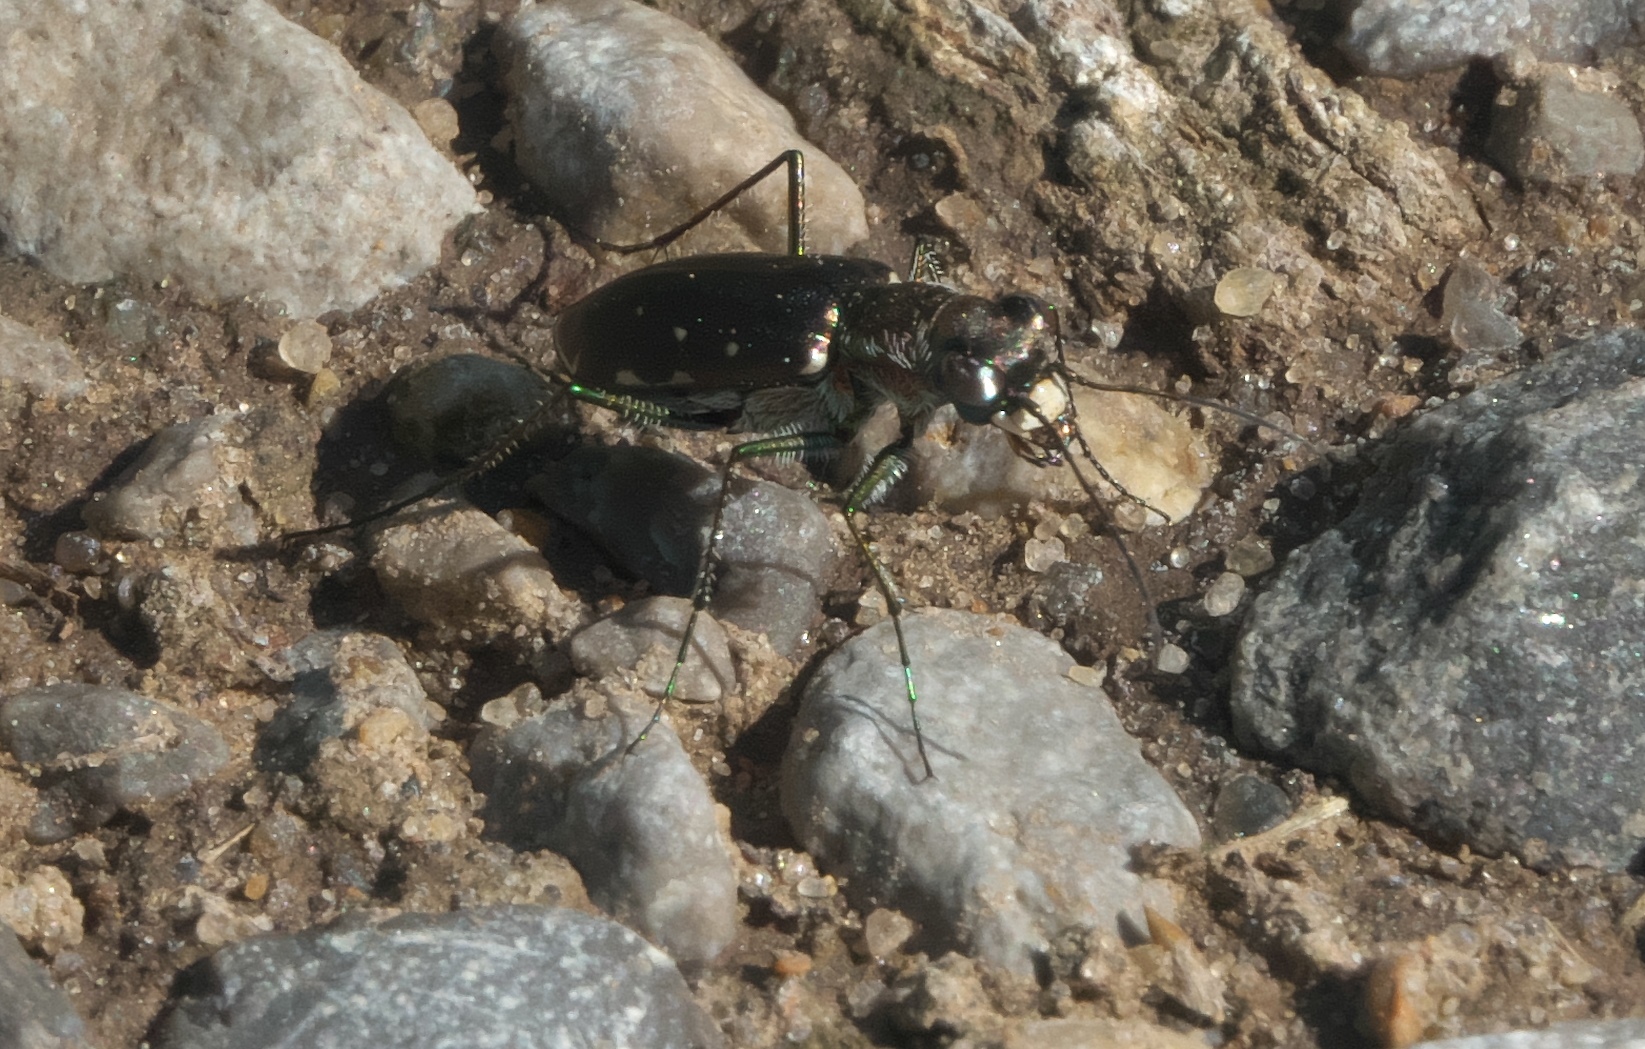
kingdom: Animalia
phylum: Arthropoda
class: Insecta
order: Coleoptera
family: Carabidae
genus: Cicindela
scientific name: Cicindela punctulata
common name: Punctured tiger beetle
